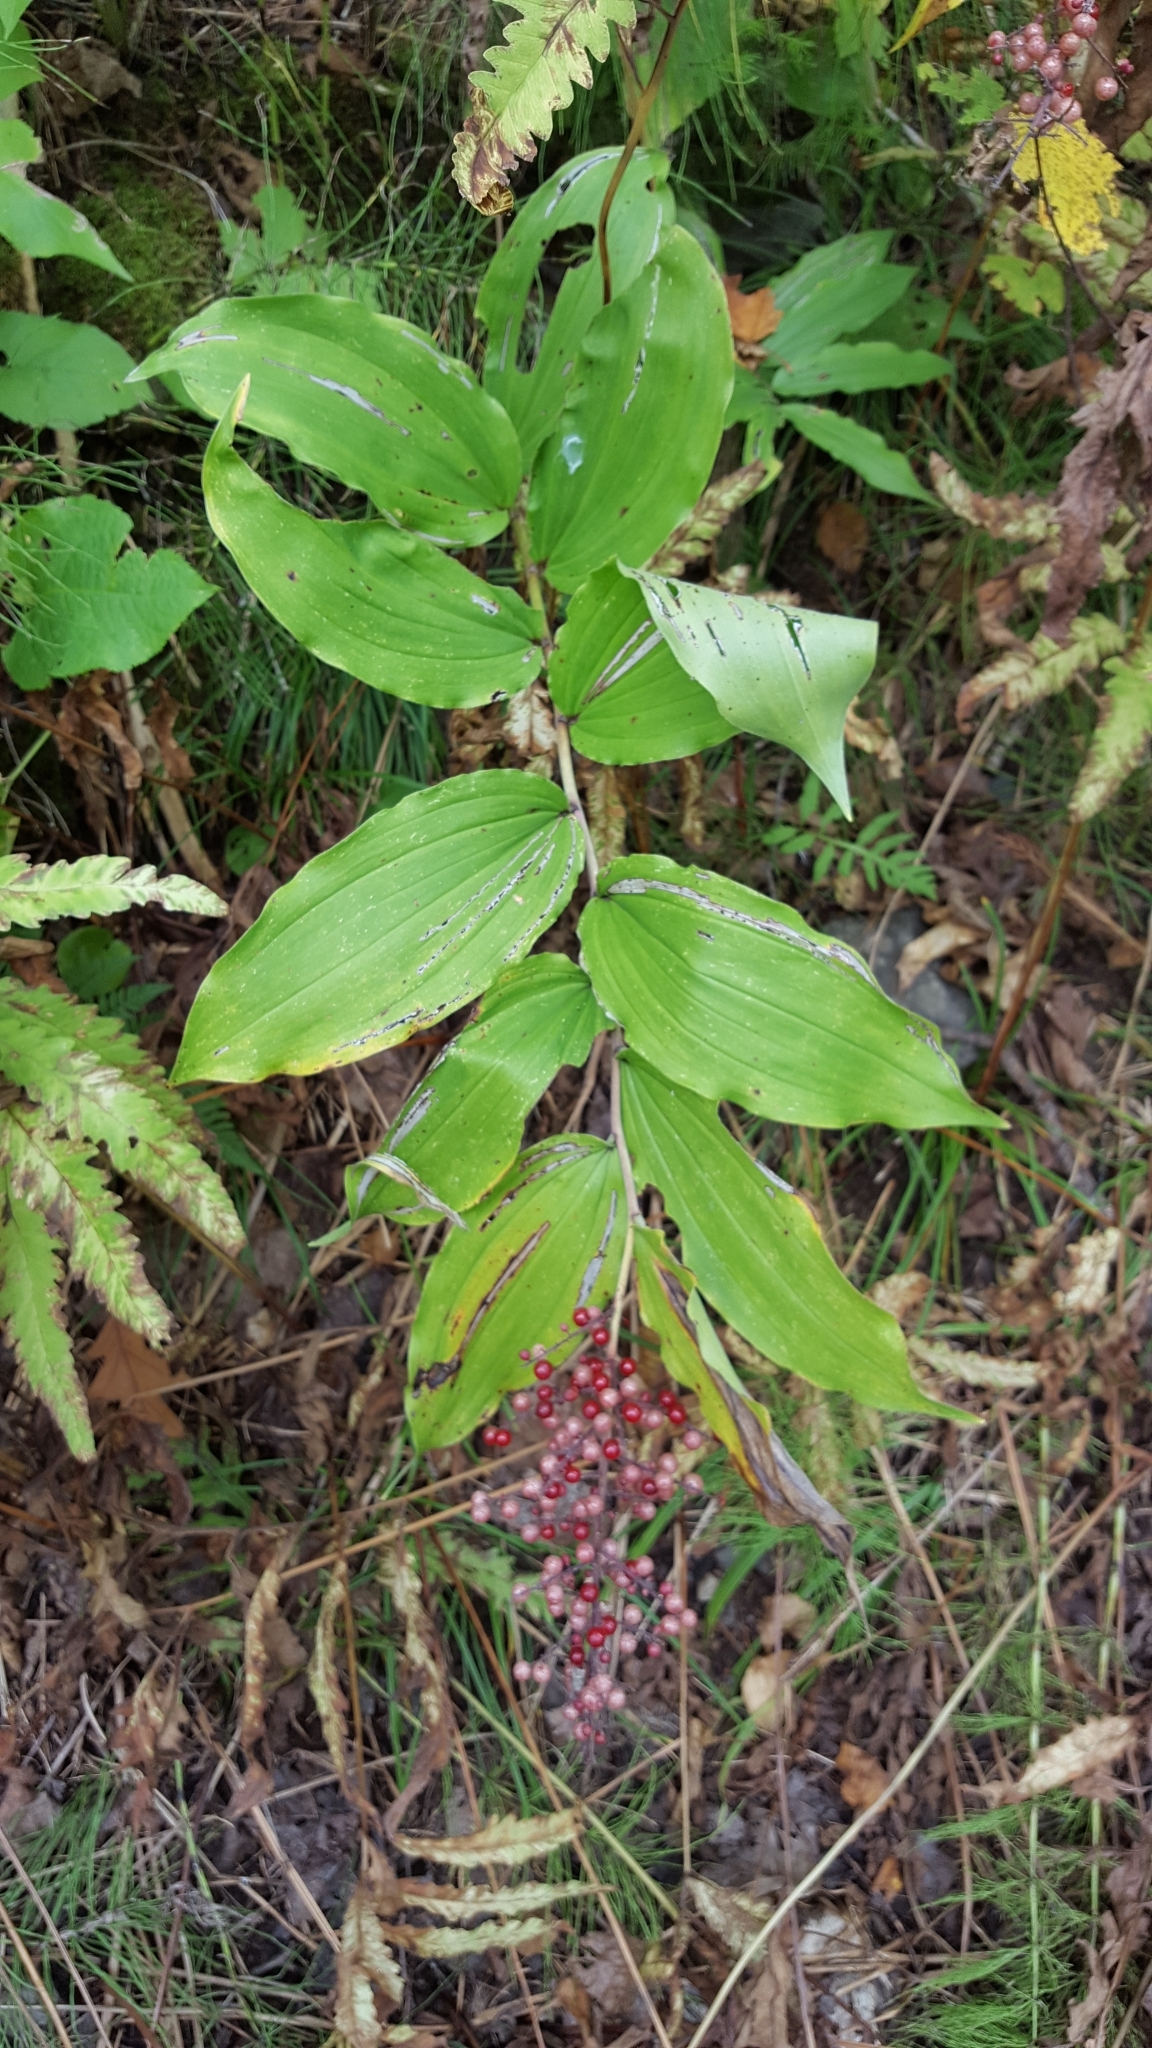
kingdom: Plantae
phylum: Tracheophyta
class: Liliopsida
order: Asparagales
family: Asparagaceae
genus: Maianthemum
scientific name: Maianthemum racemosum
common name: False spikenard
